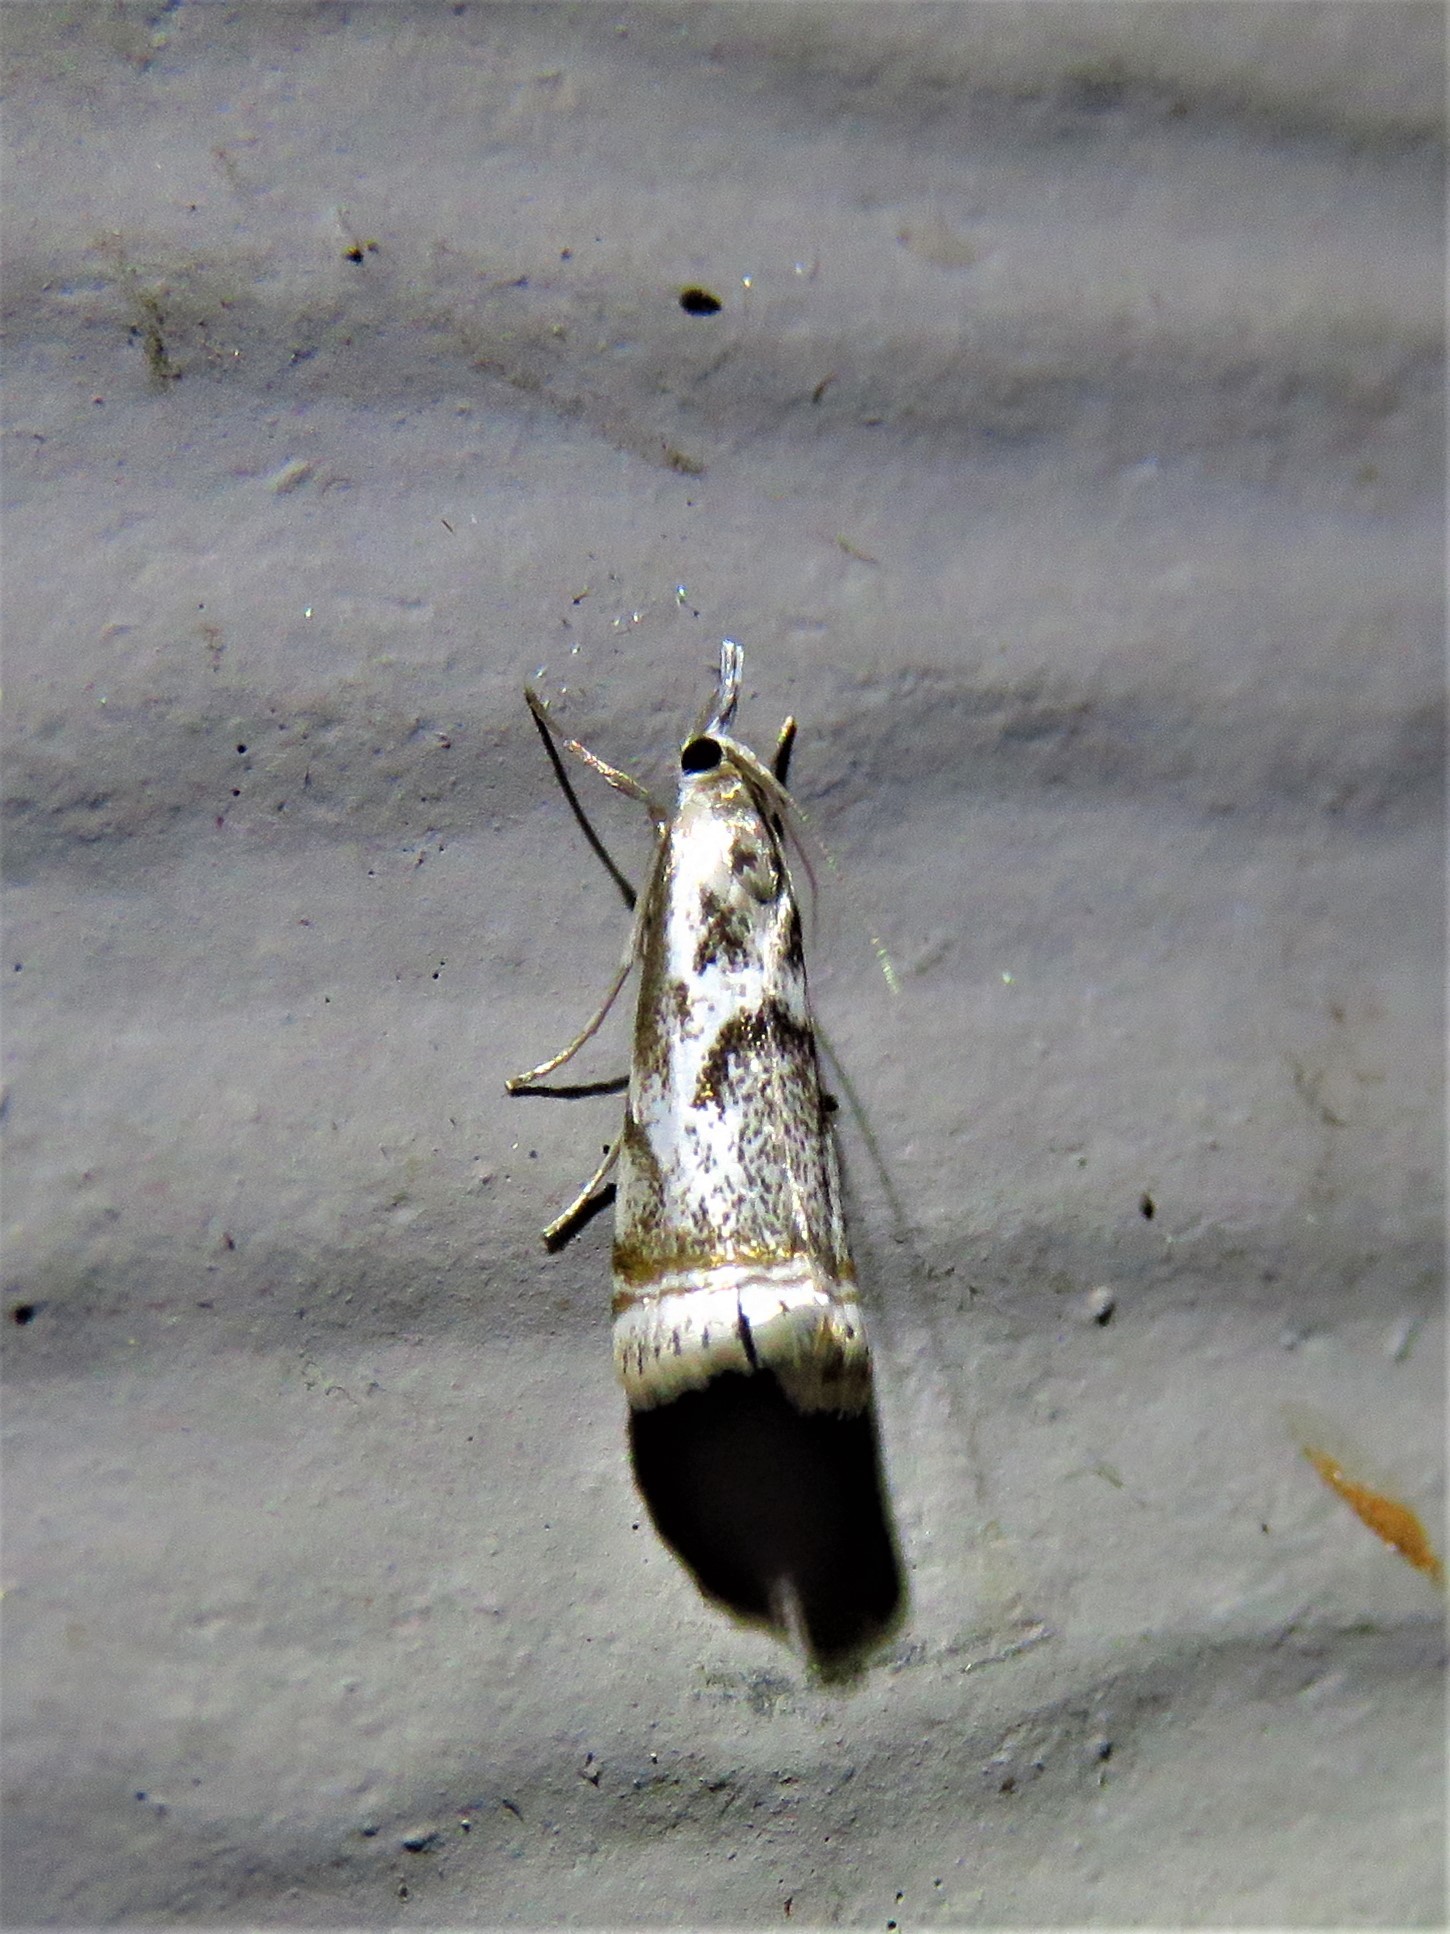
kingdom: Animalia
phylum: Arthropoda
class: Insecta
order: Lepidoptera
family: Crambidae
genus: Microcrambus
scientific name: Microcrambus elegans
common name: Elegant grass-veneer
